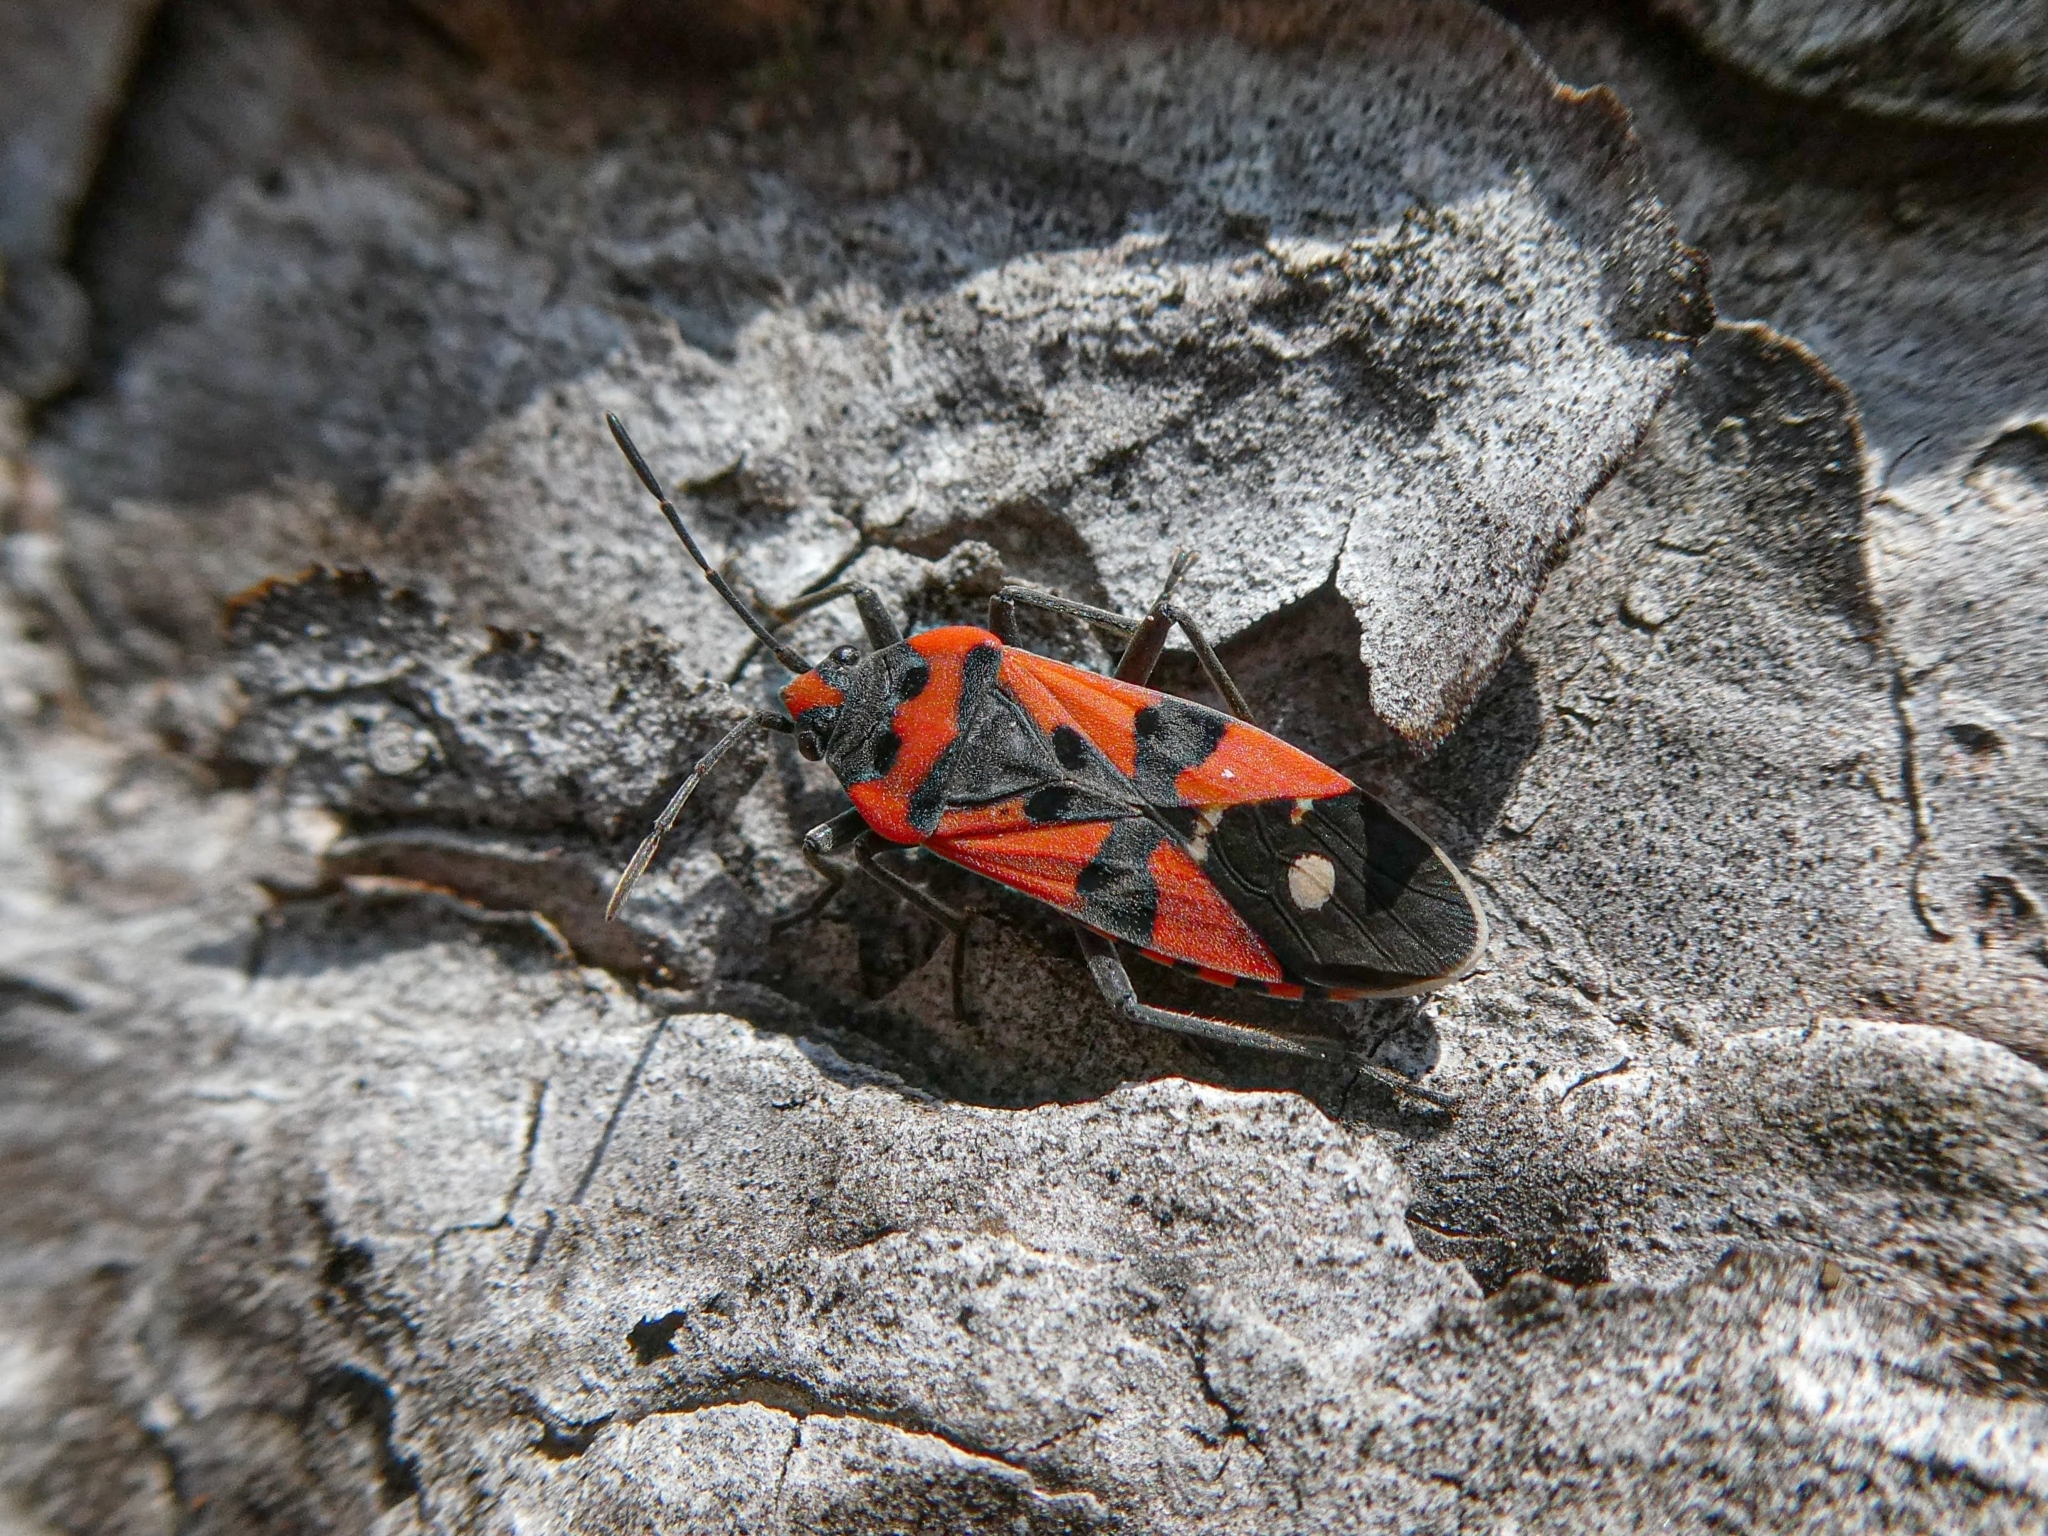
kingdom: Animalia
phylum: Arthropoda
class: Insecta
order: Hemiptera
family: Lygaeidae
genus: Lygaeus
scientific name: Lygaeus equestris
